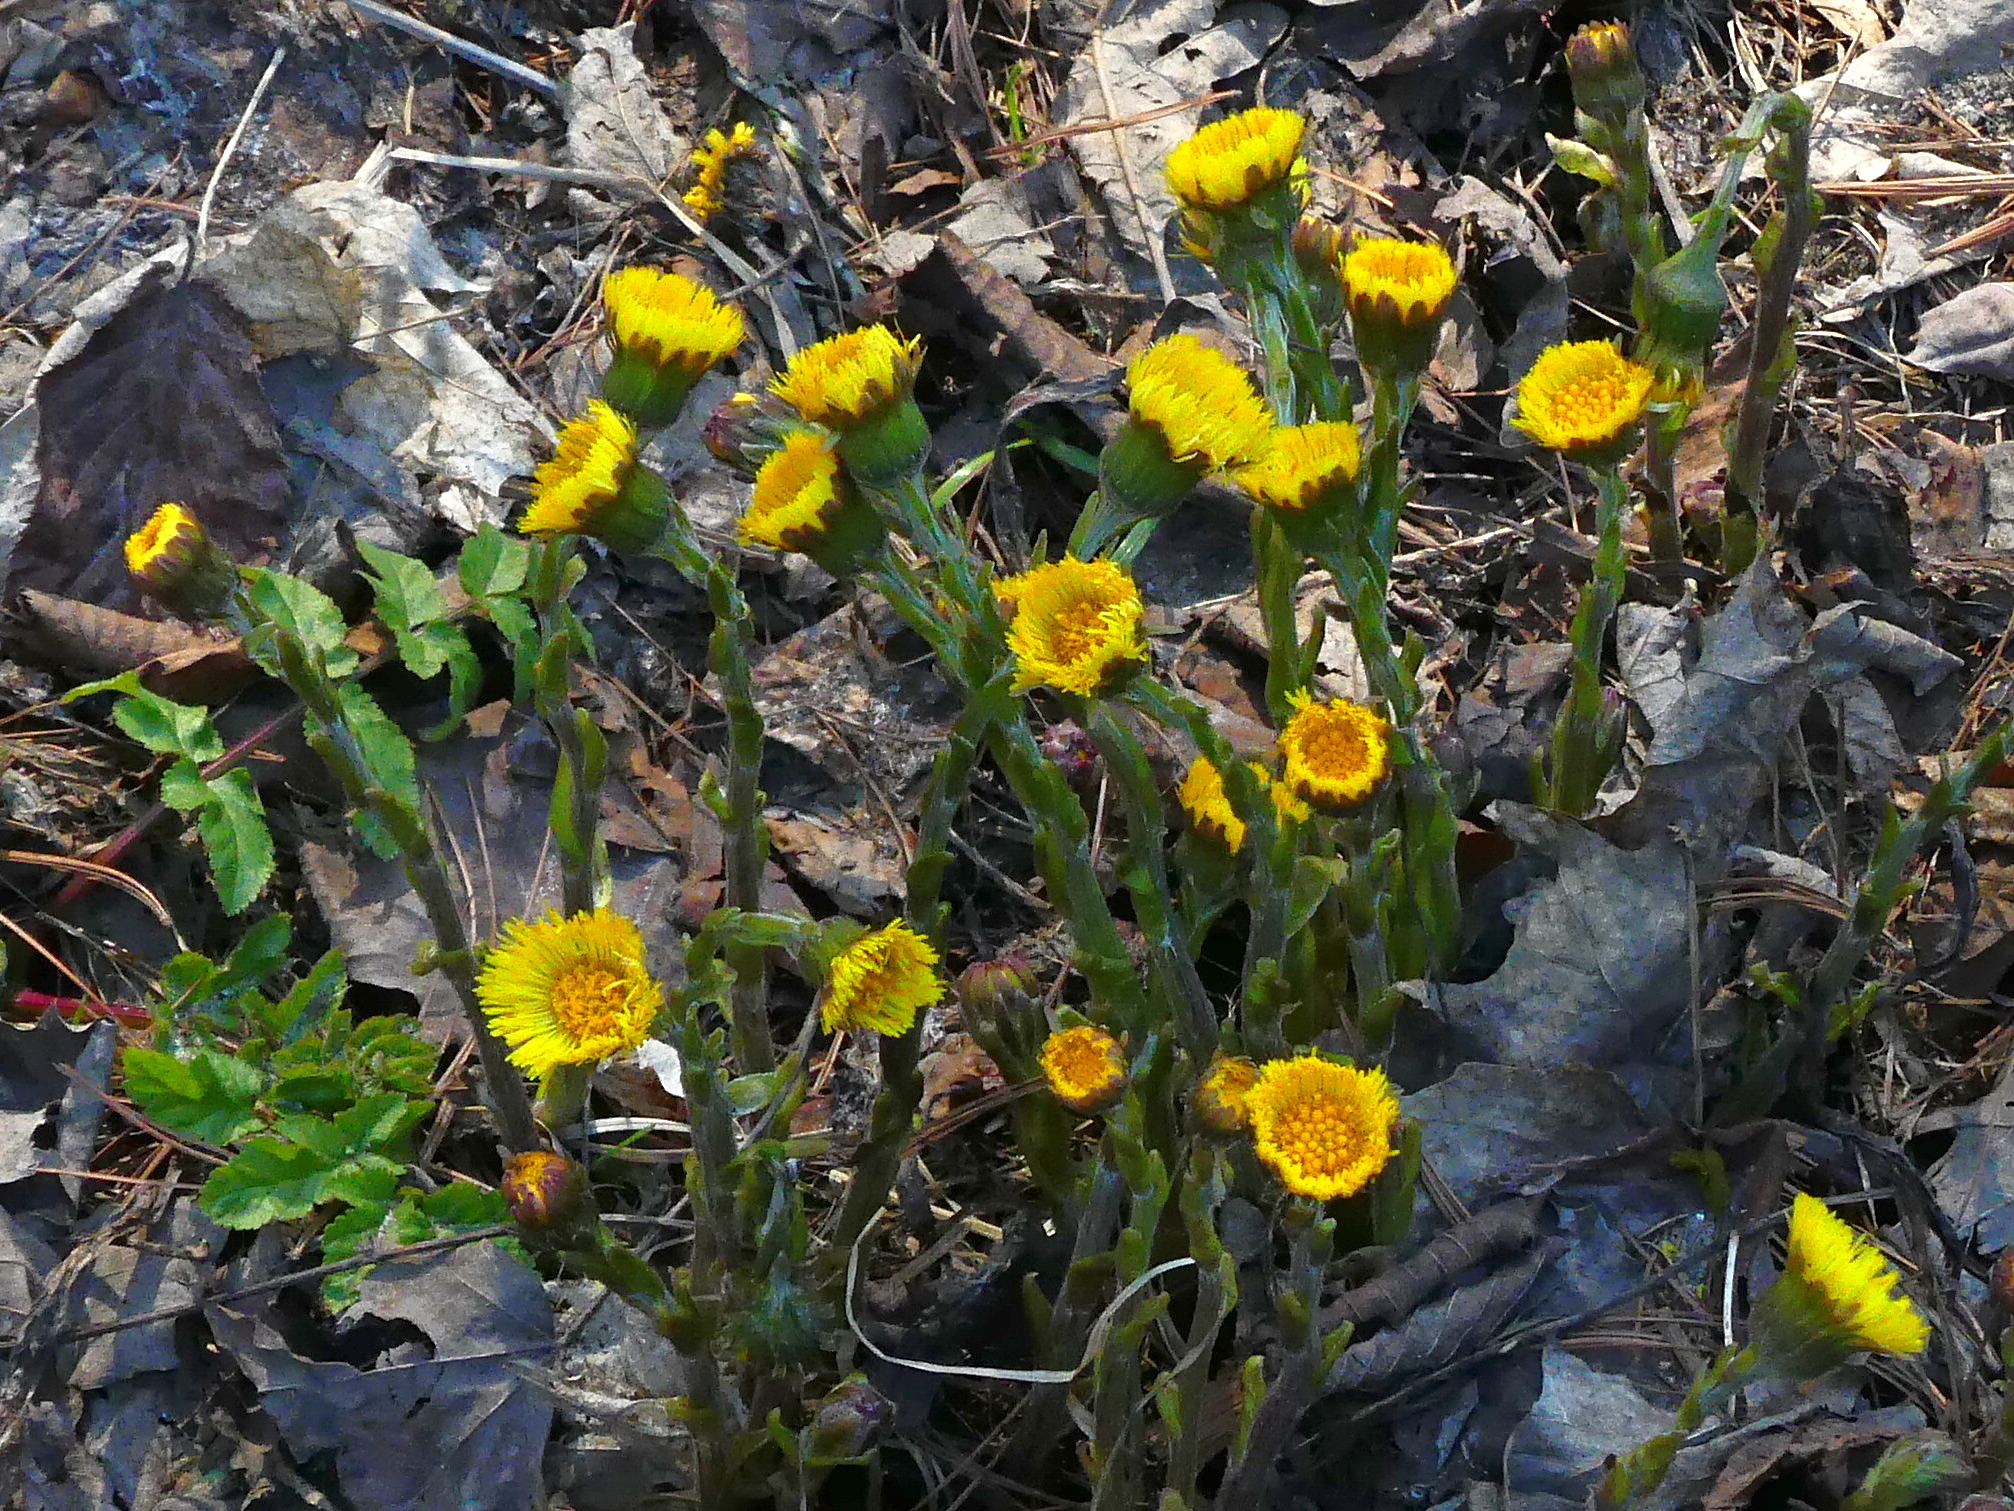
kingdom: Plantae
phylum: Tracheophyta
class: Magnoliopsida
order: Asterales
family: Asteraceae
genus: Tussilago
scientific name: Tussilago farfara
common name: Coltsfoot
